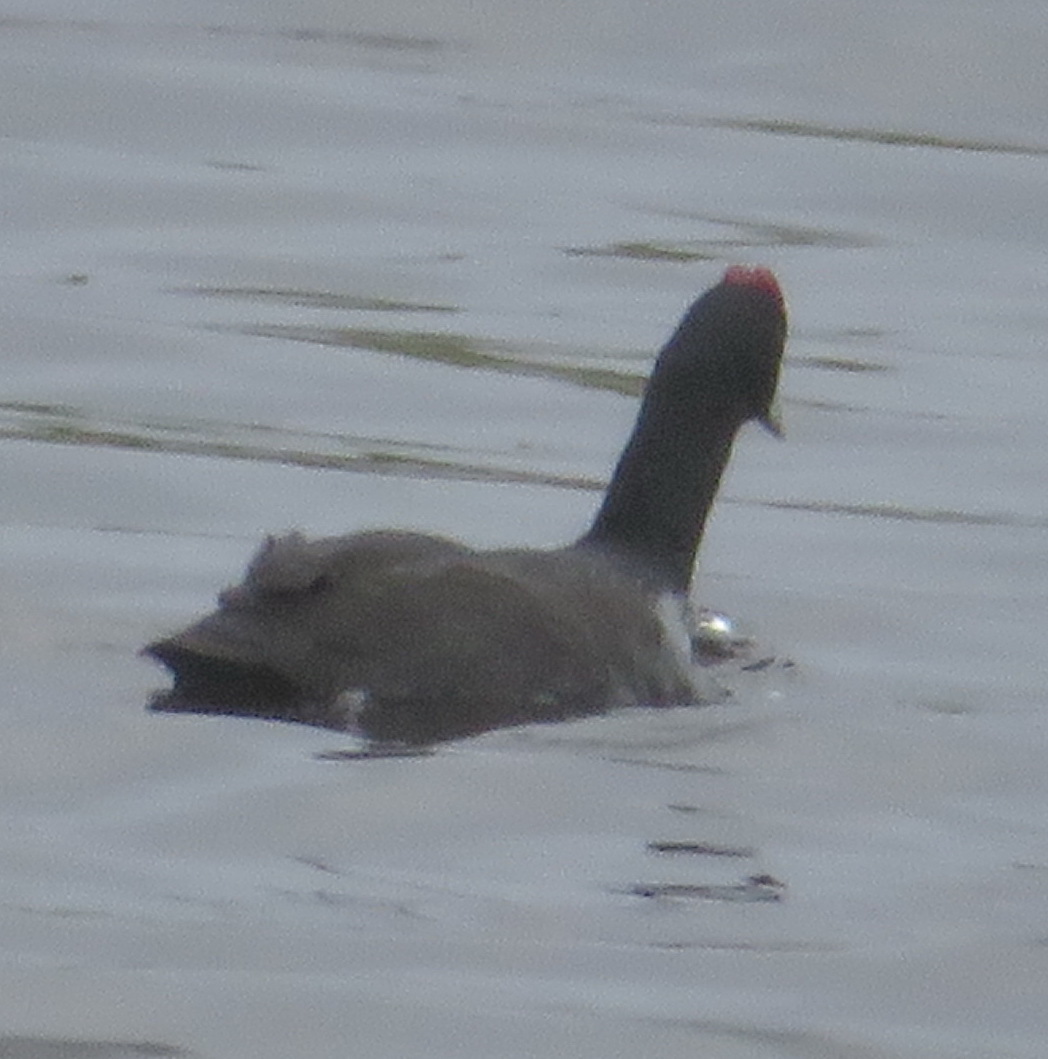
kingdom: Animalia
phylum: Chordata
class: Aves
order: Gruiformes
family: Rallidae
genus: Fulica
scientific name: Fulica cristata
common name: Red-knobbed coot
